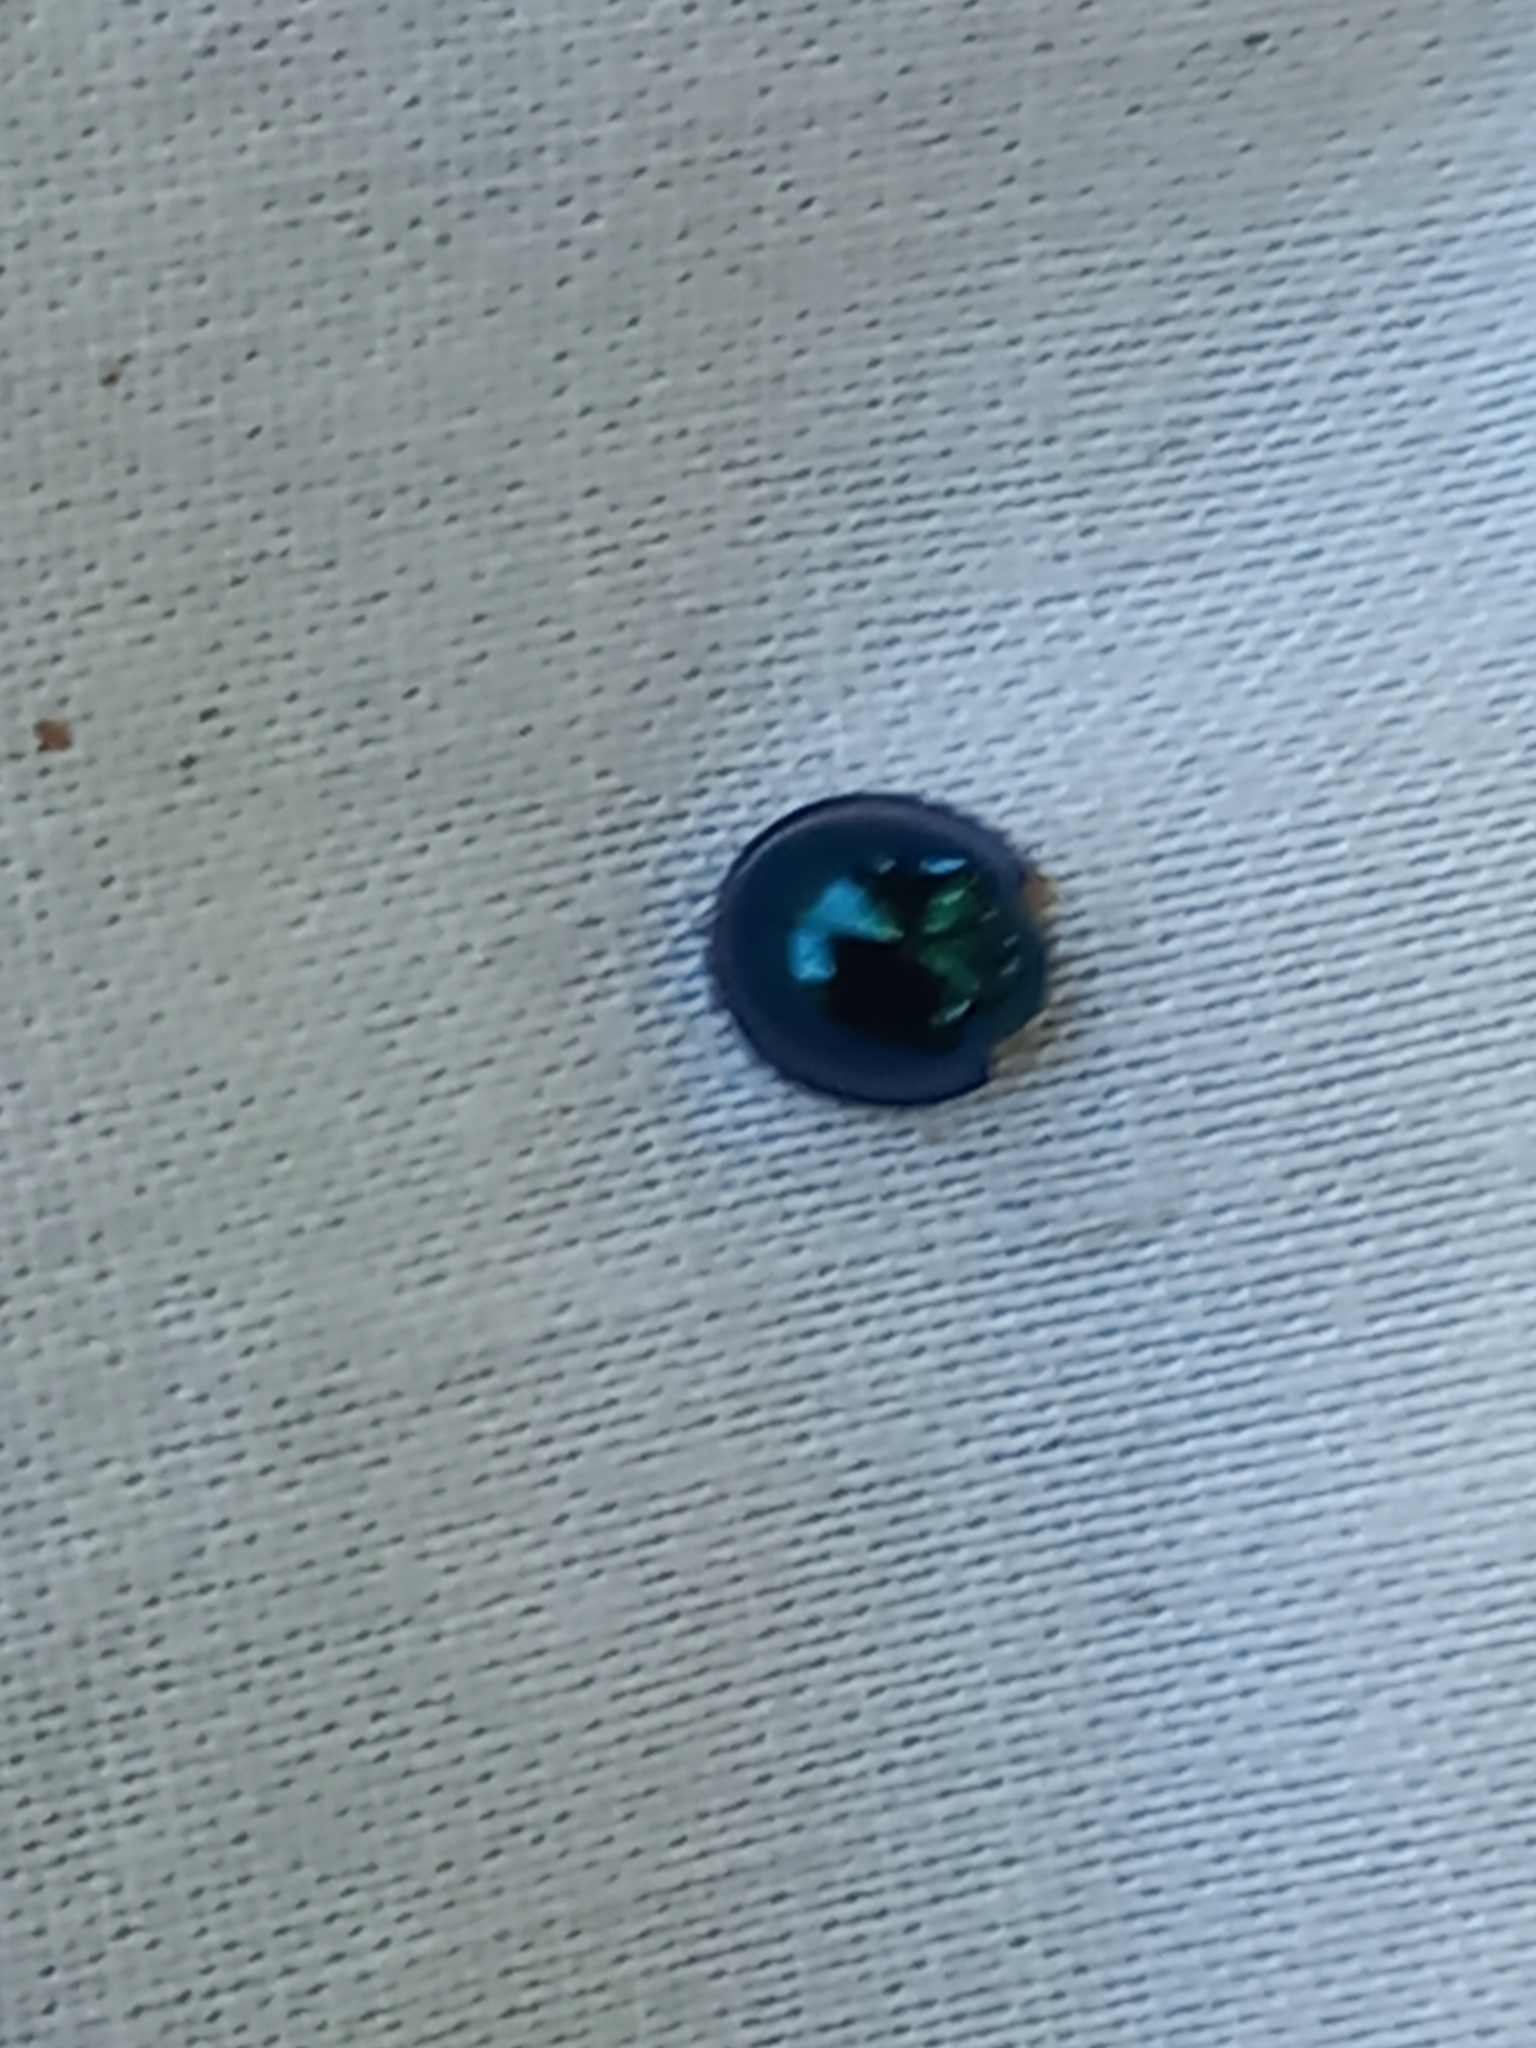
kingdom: Animalia
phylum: Arthropoda
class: Insecta
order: Coleoptera
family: Coccinellidae
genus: Halmus
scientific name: Halmus chalybeus
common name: Steel blue ladybird beetle
